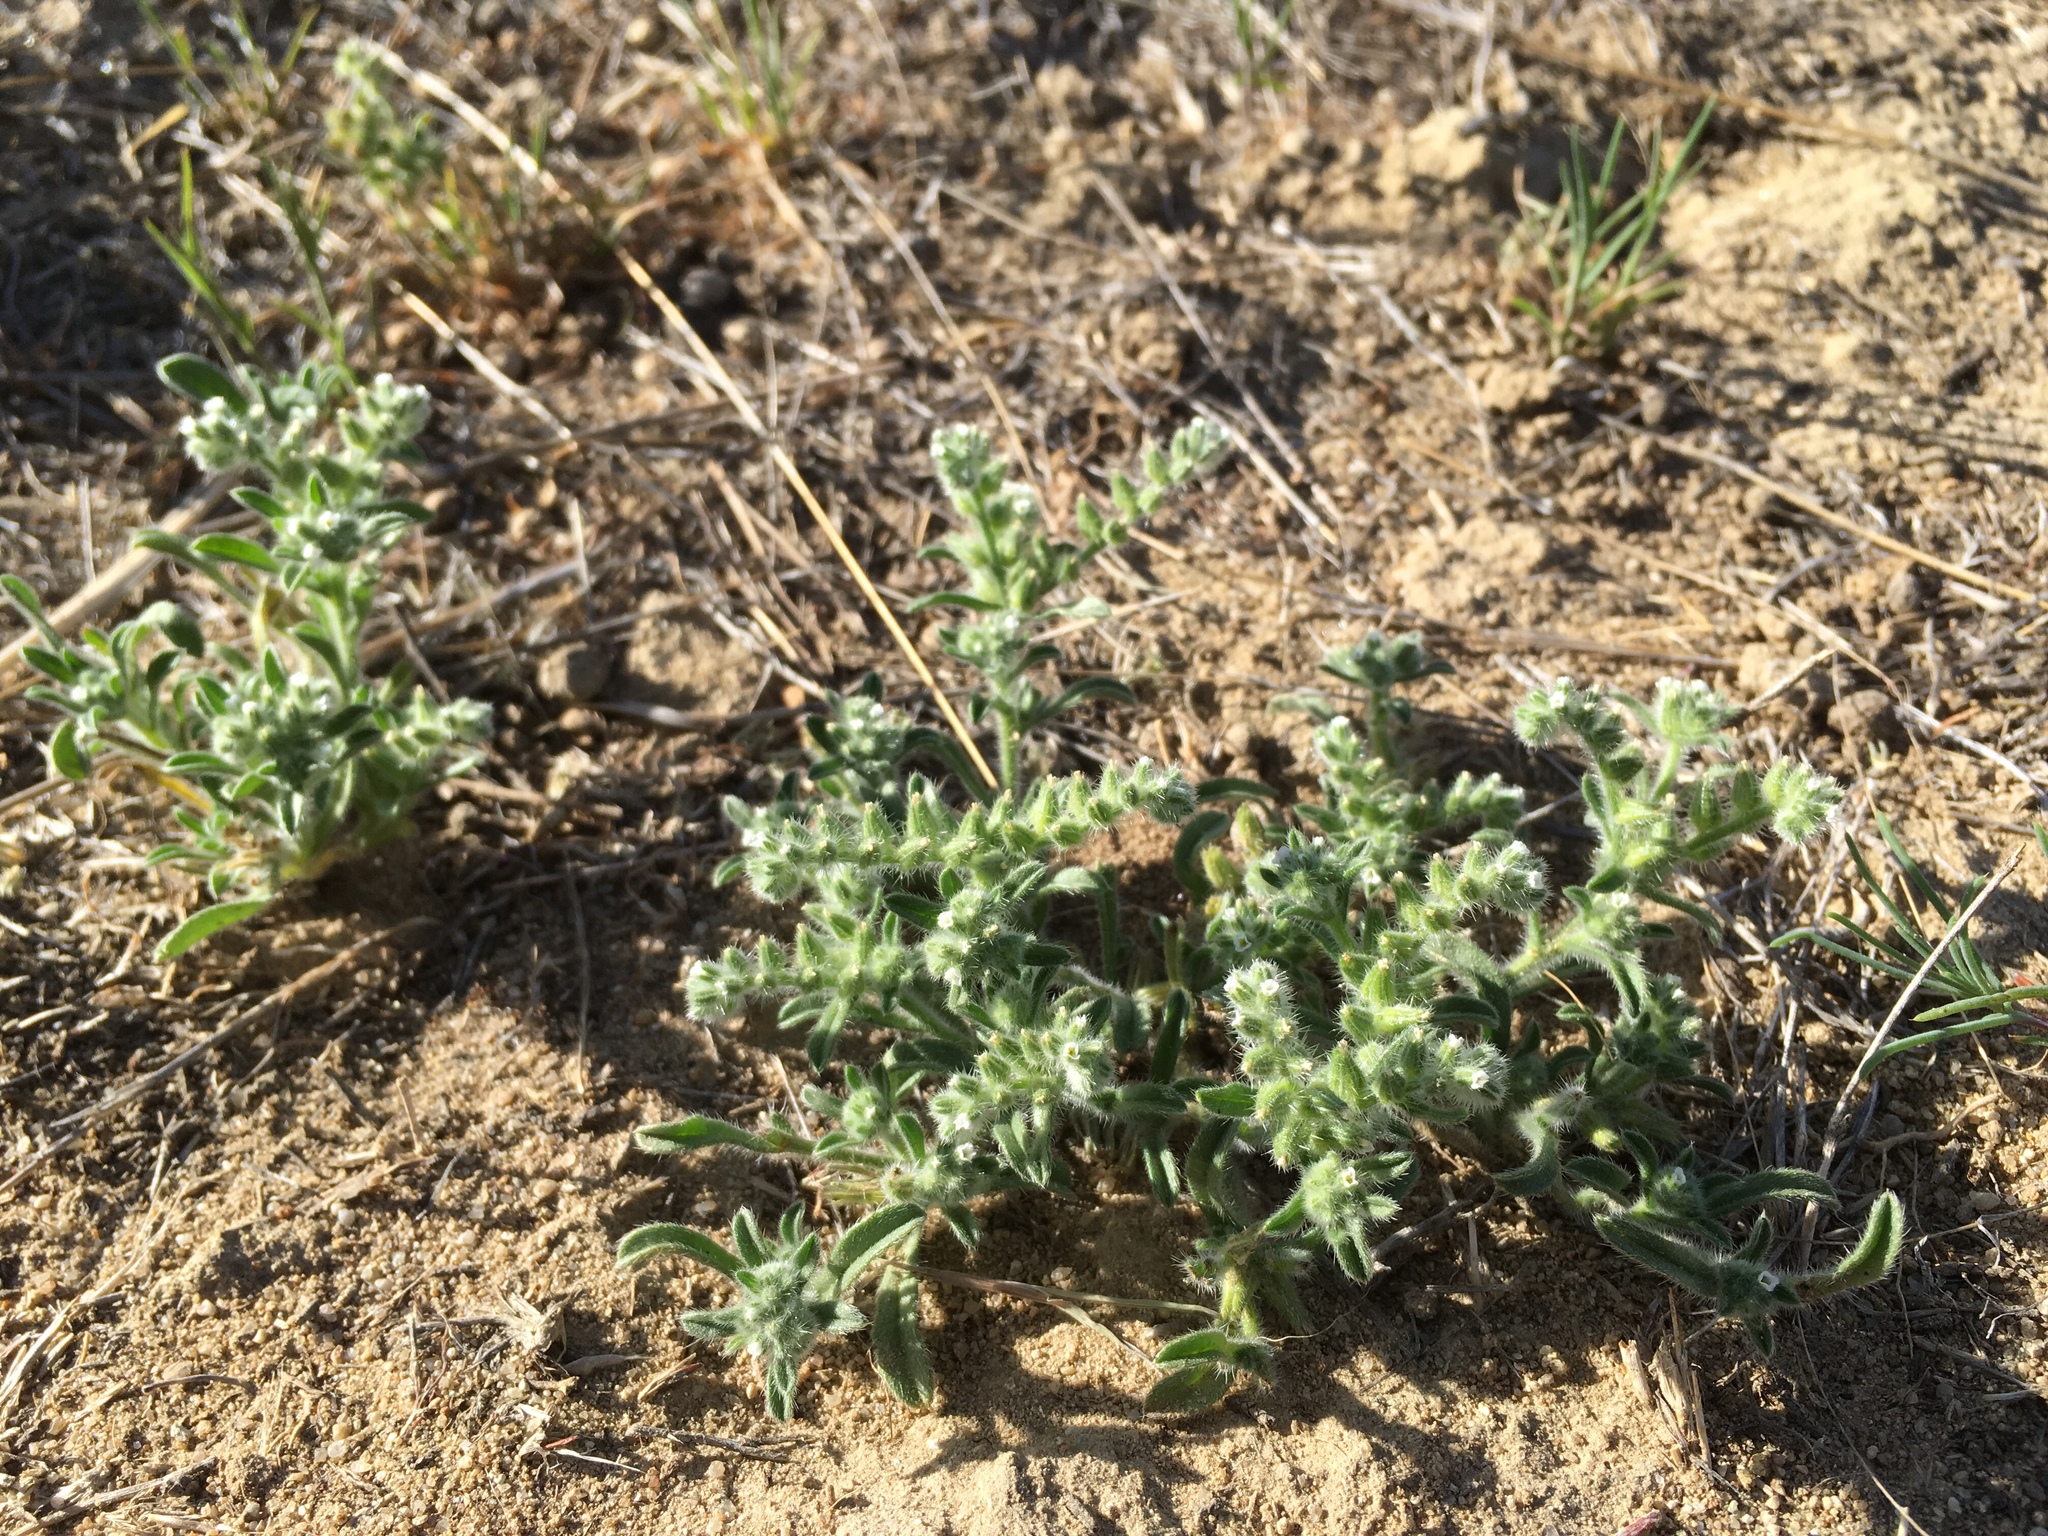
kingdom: Plantae
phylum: Tracheophyta
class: Magnoliopsida
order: Boraginales
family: Boraginaceae
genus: Cryptantha
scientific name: Cryptantha crassisepala
